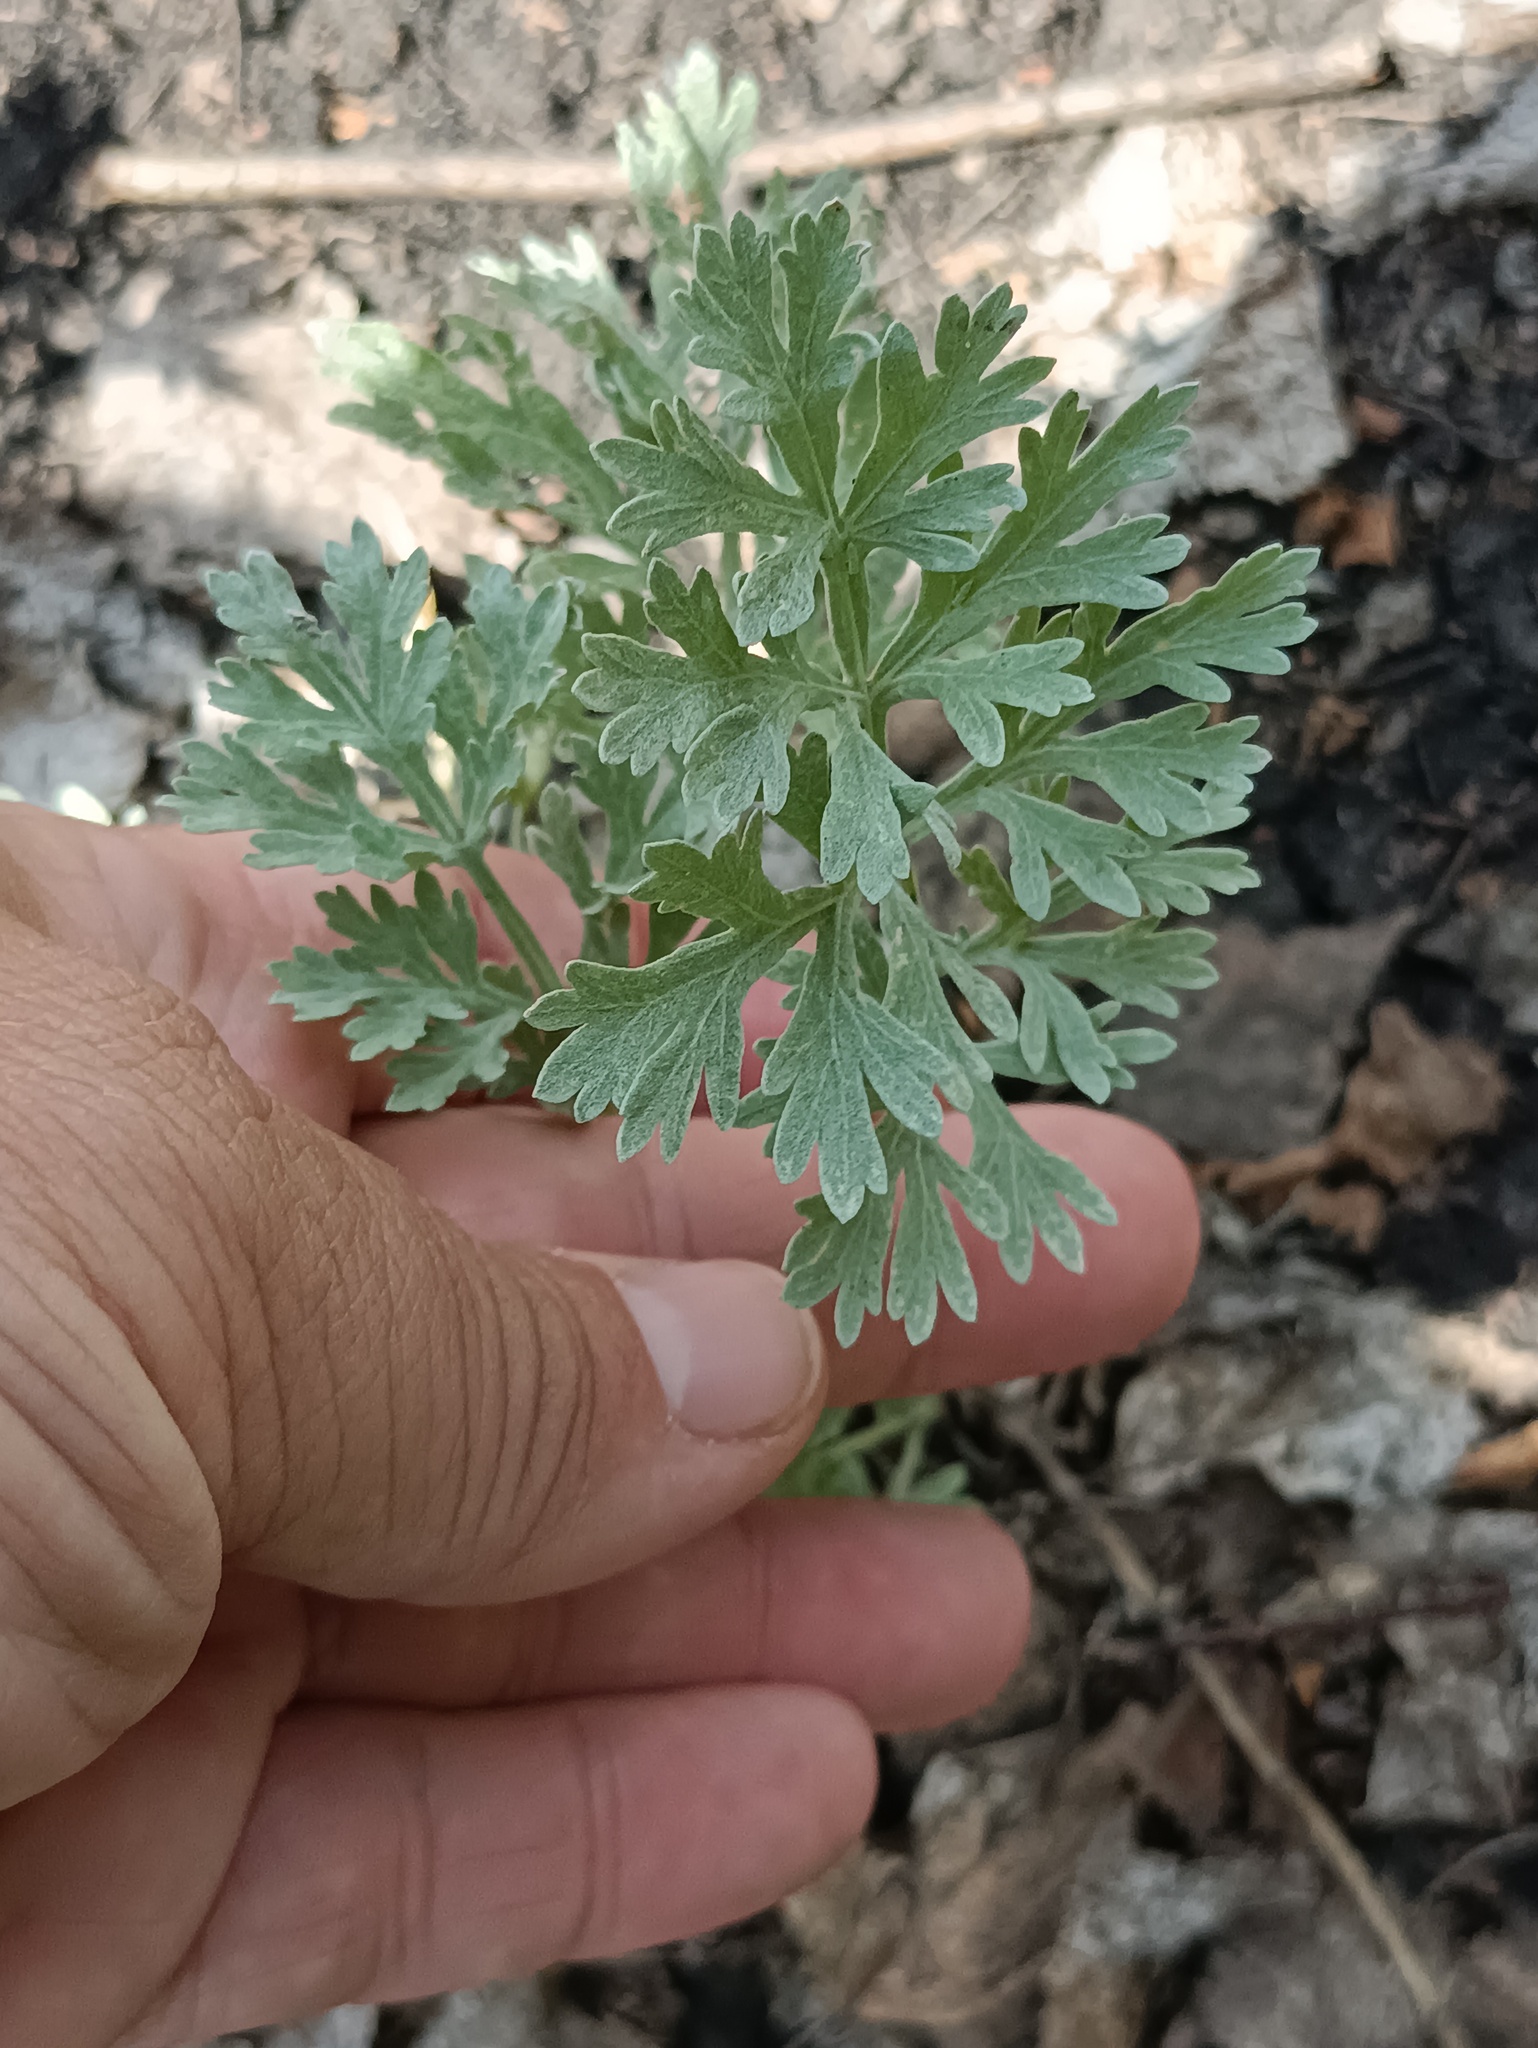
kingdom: Plantae
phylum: Tracheophyta
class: Magnoliopsida
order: Asterales
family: Asteraceae
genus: Artemisia
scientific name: Artemisia absinthium
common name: Wormwood
